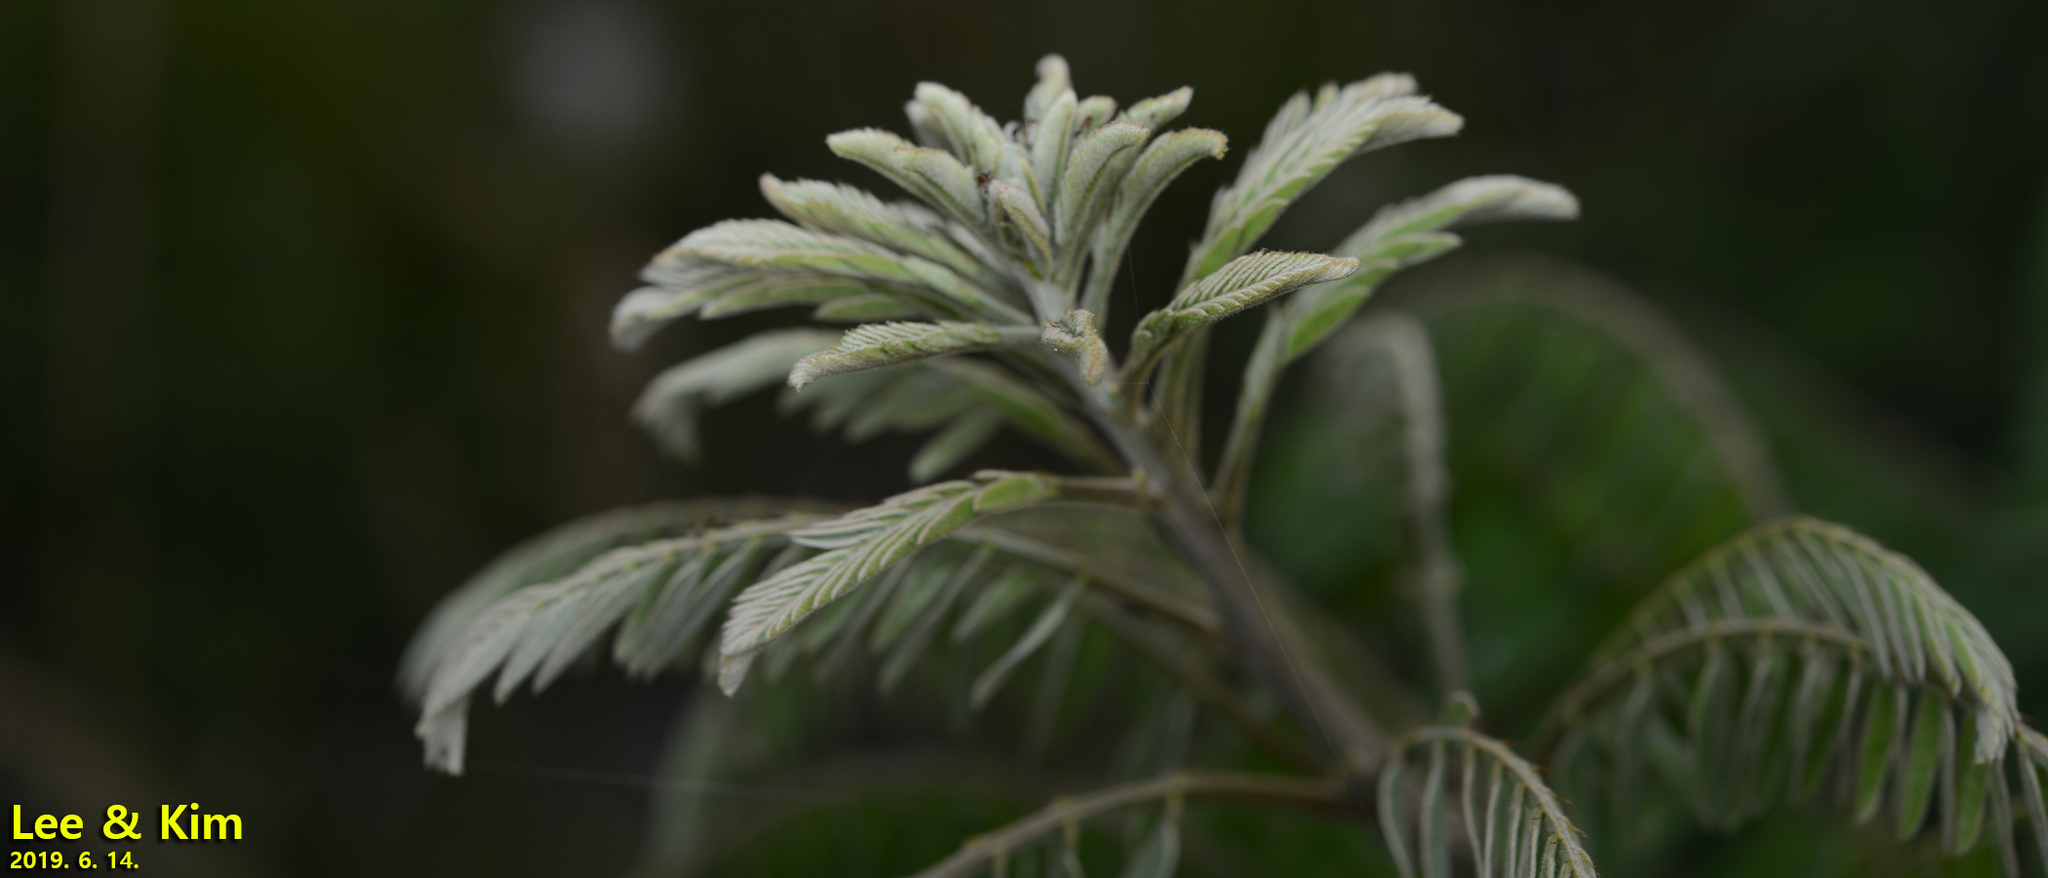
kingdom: Plantae
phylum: Tracheophyta
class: Magnoliopsida
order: Fabales
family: Fabaceae
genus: Amorpha
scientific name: Amorpha fruticosa
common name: False indigo
